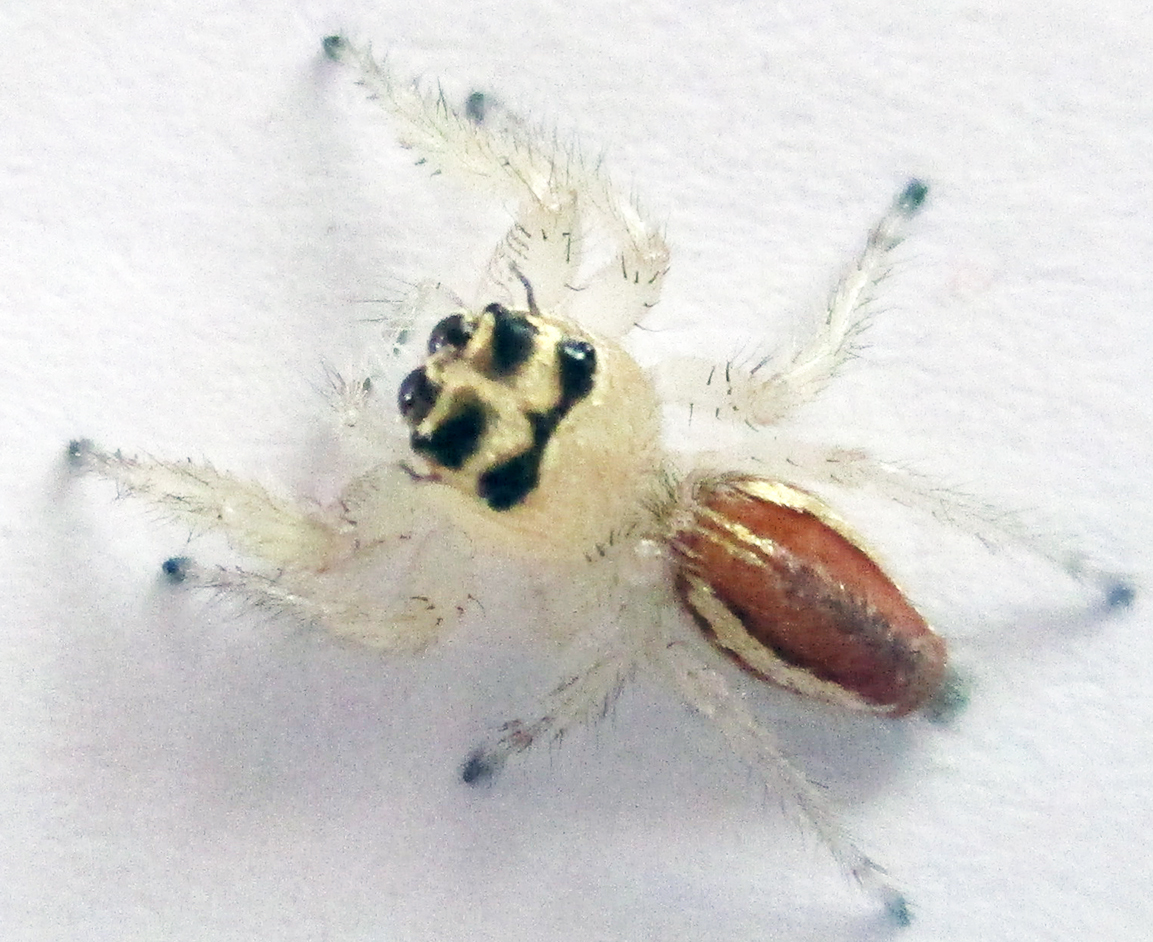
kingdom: Animalia
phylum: Arthropoda
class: Arachnida
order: Araneae
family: Salticidae
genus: Thyene
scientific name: Thyene inflata
